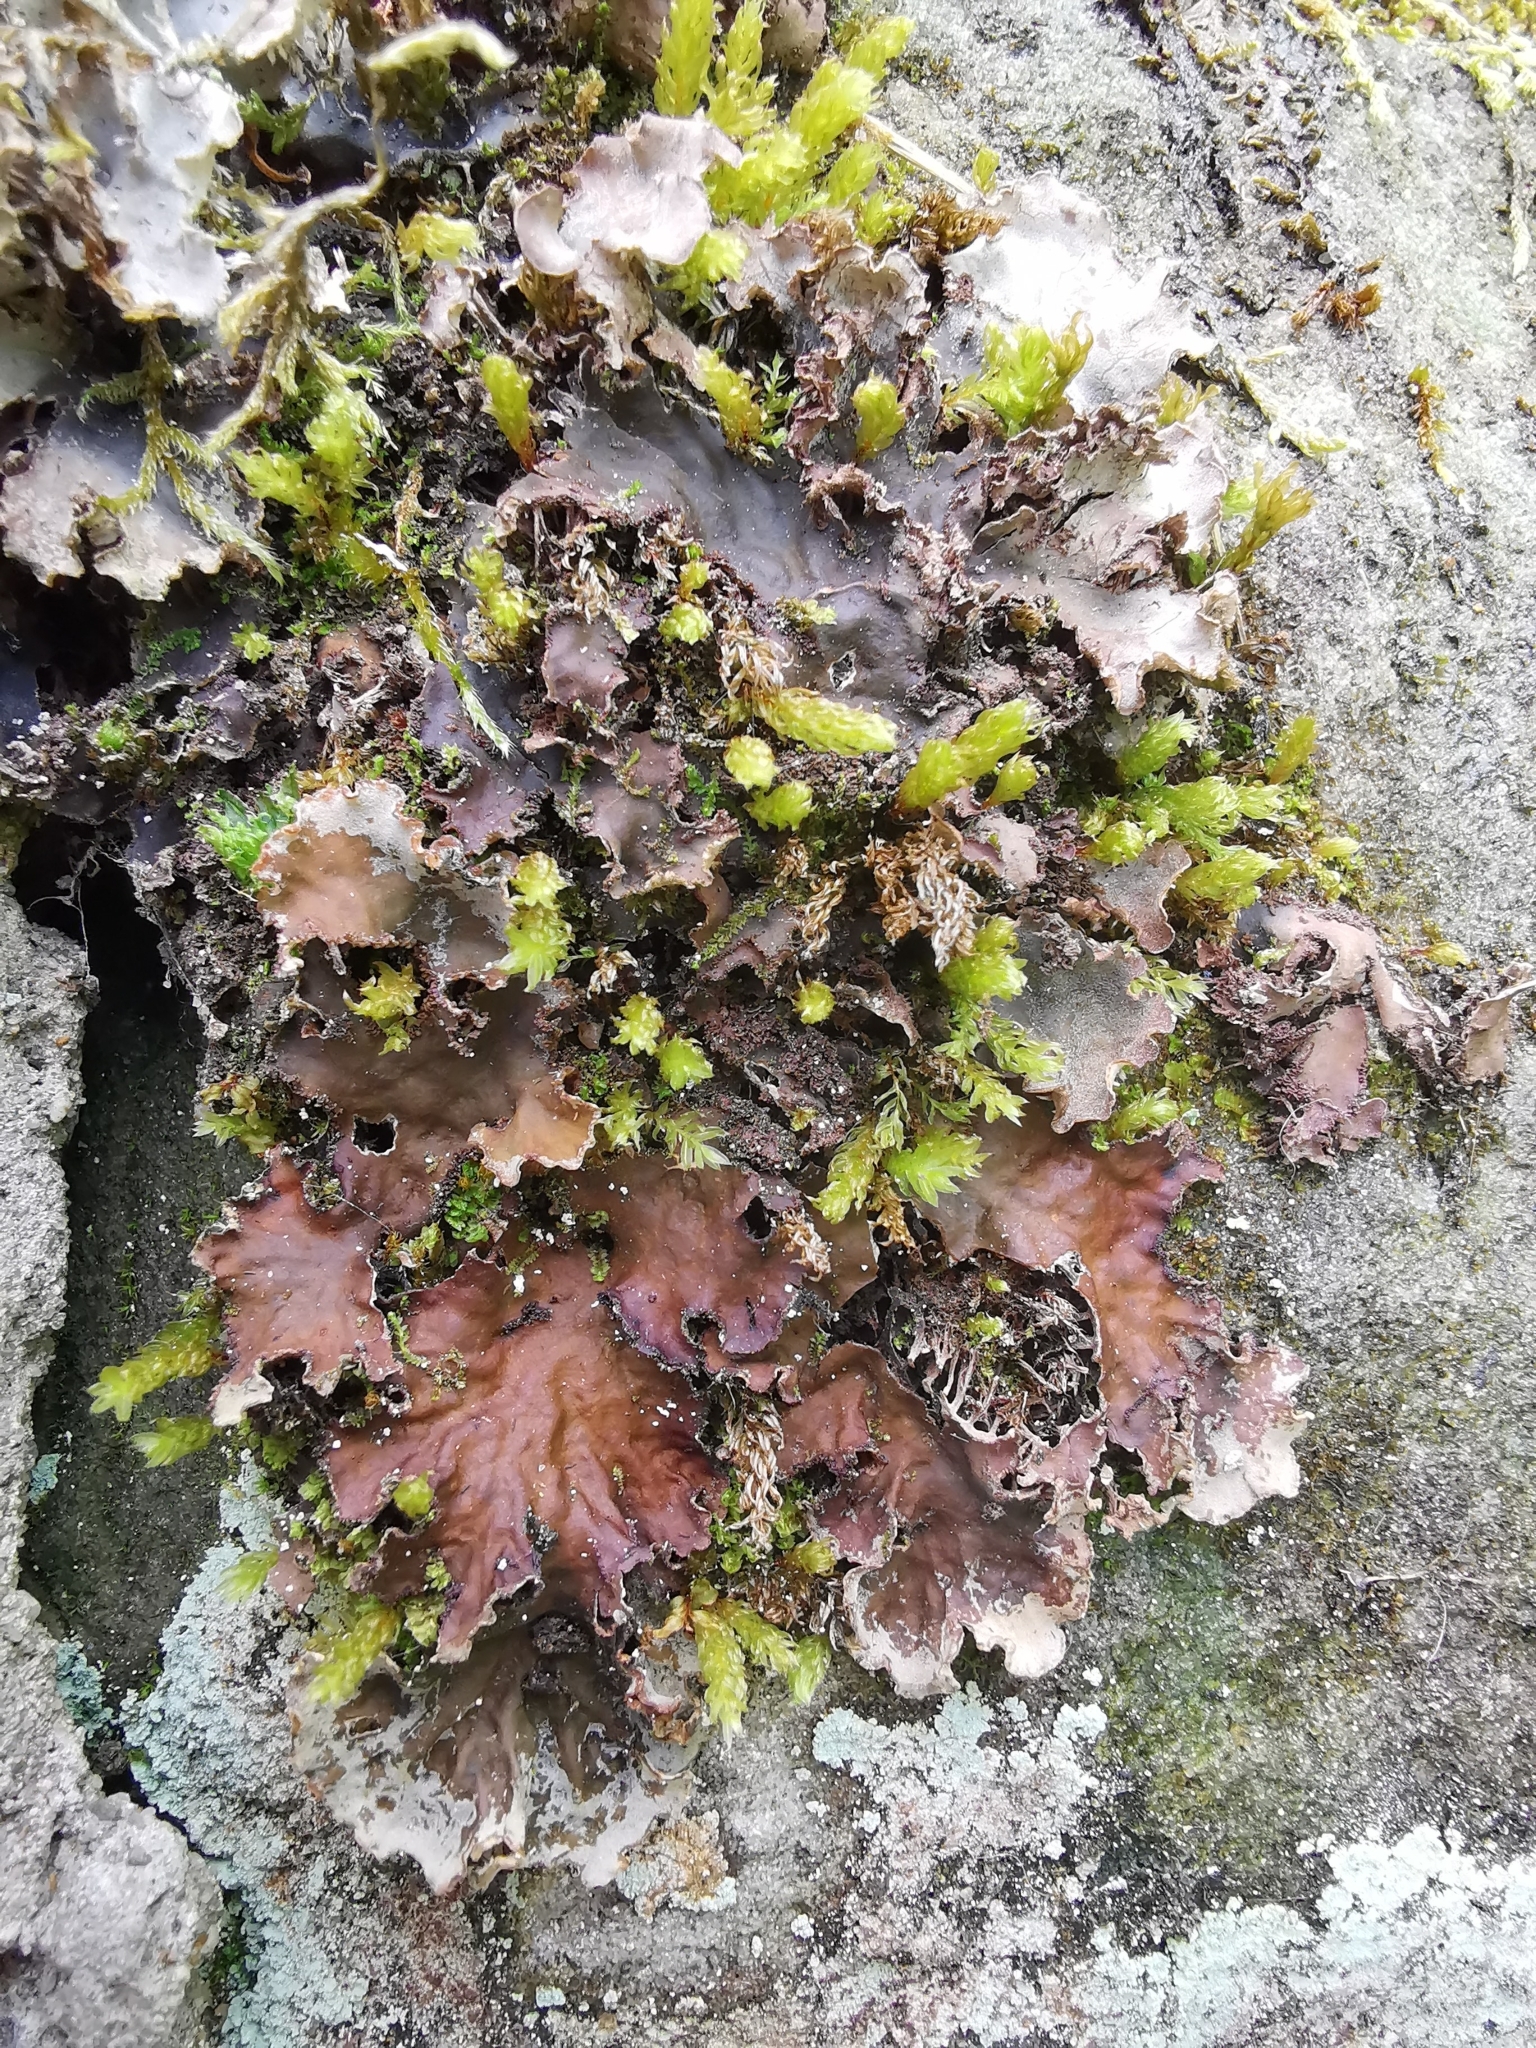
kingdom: Fungi
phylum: Ascomycota
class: Lecanoromycetes
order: Peltigerales
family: Peltigeraceae
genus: Peltigera
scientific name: Peltigera praetextata
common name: Scaly dog-lichen
